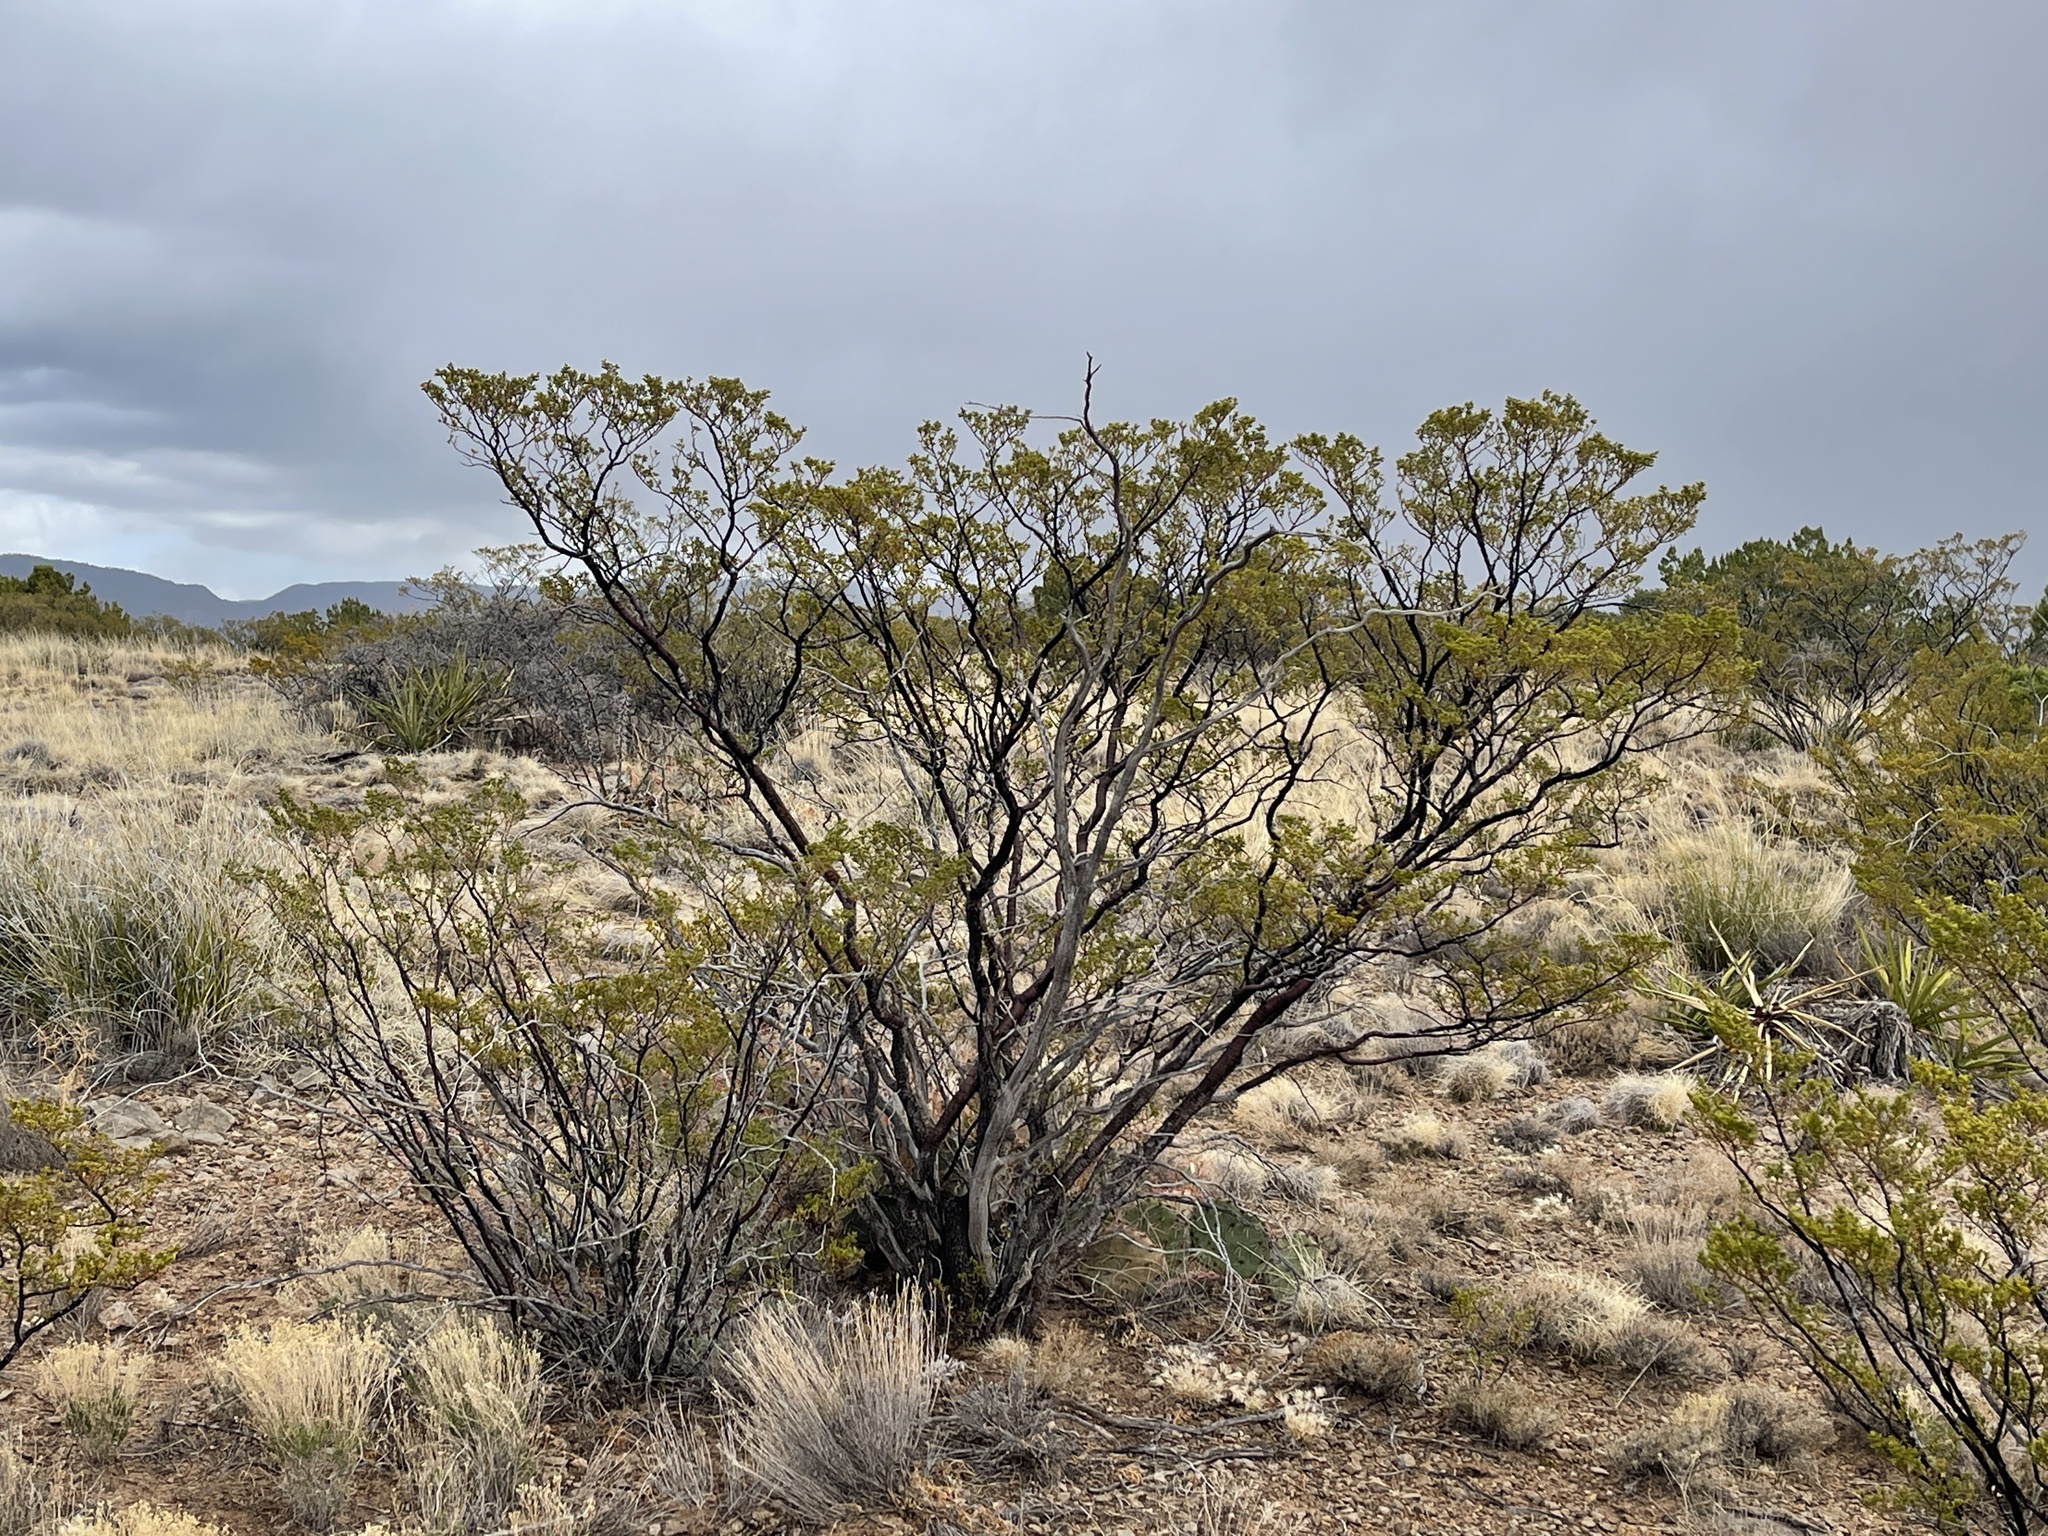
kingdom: Plantae
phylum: Tracheophyta
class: Magnoliopsida
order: Zygophyllales
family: Zygophyllaceae
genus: Larrea
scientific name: Larrea tridentata
